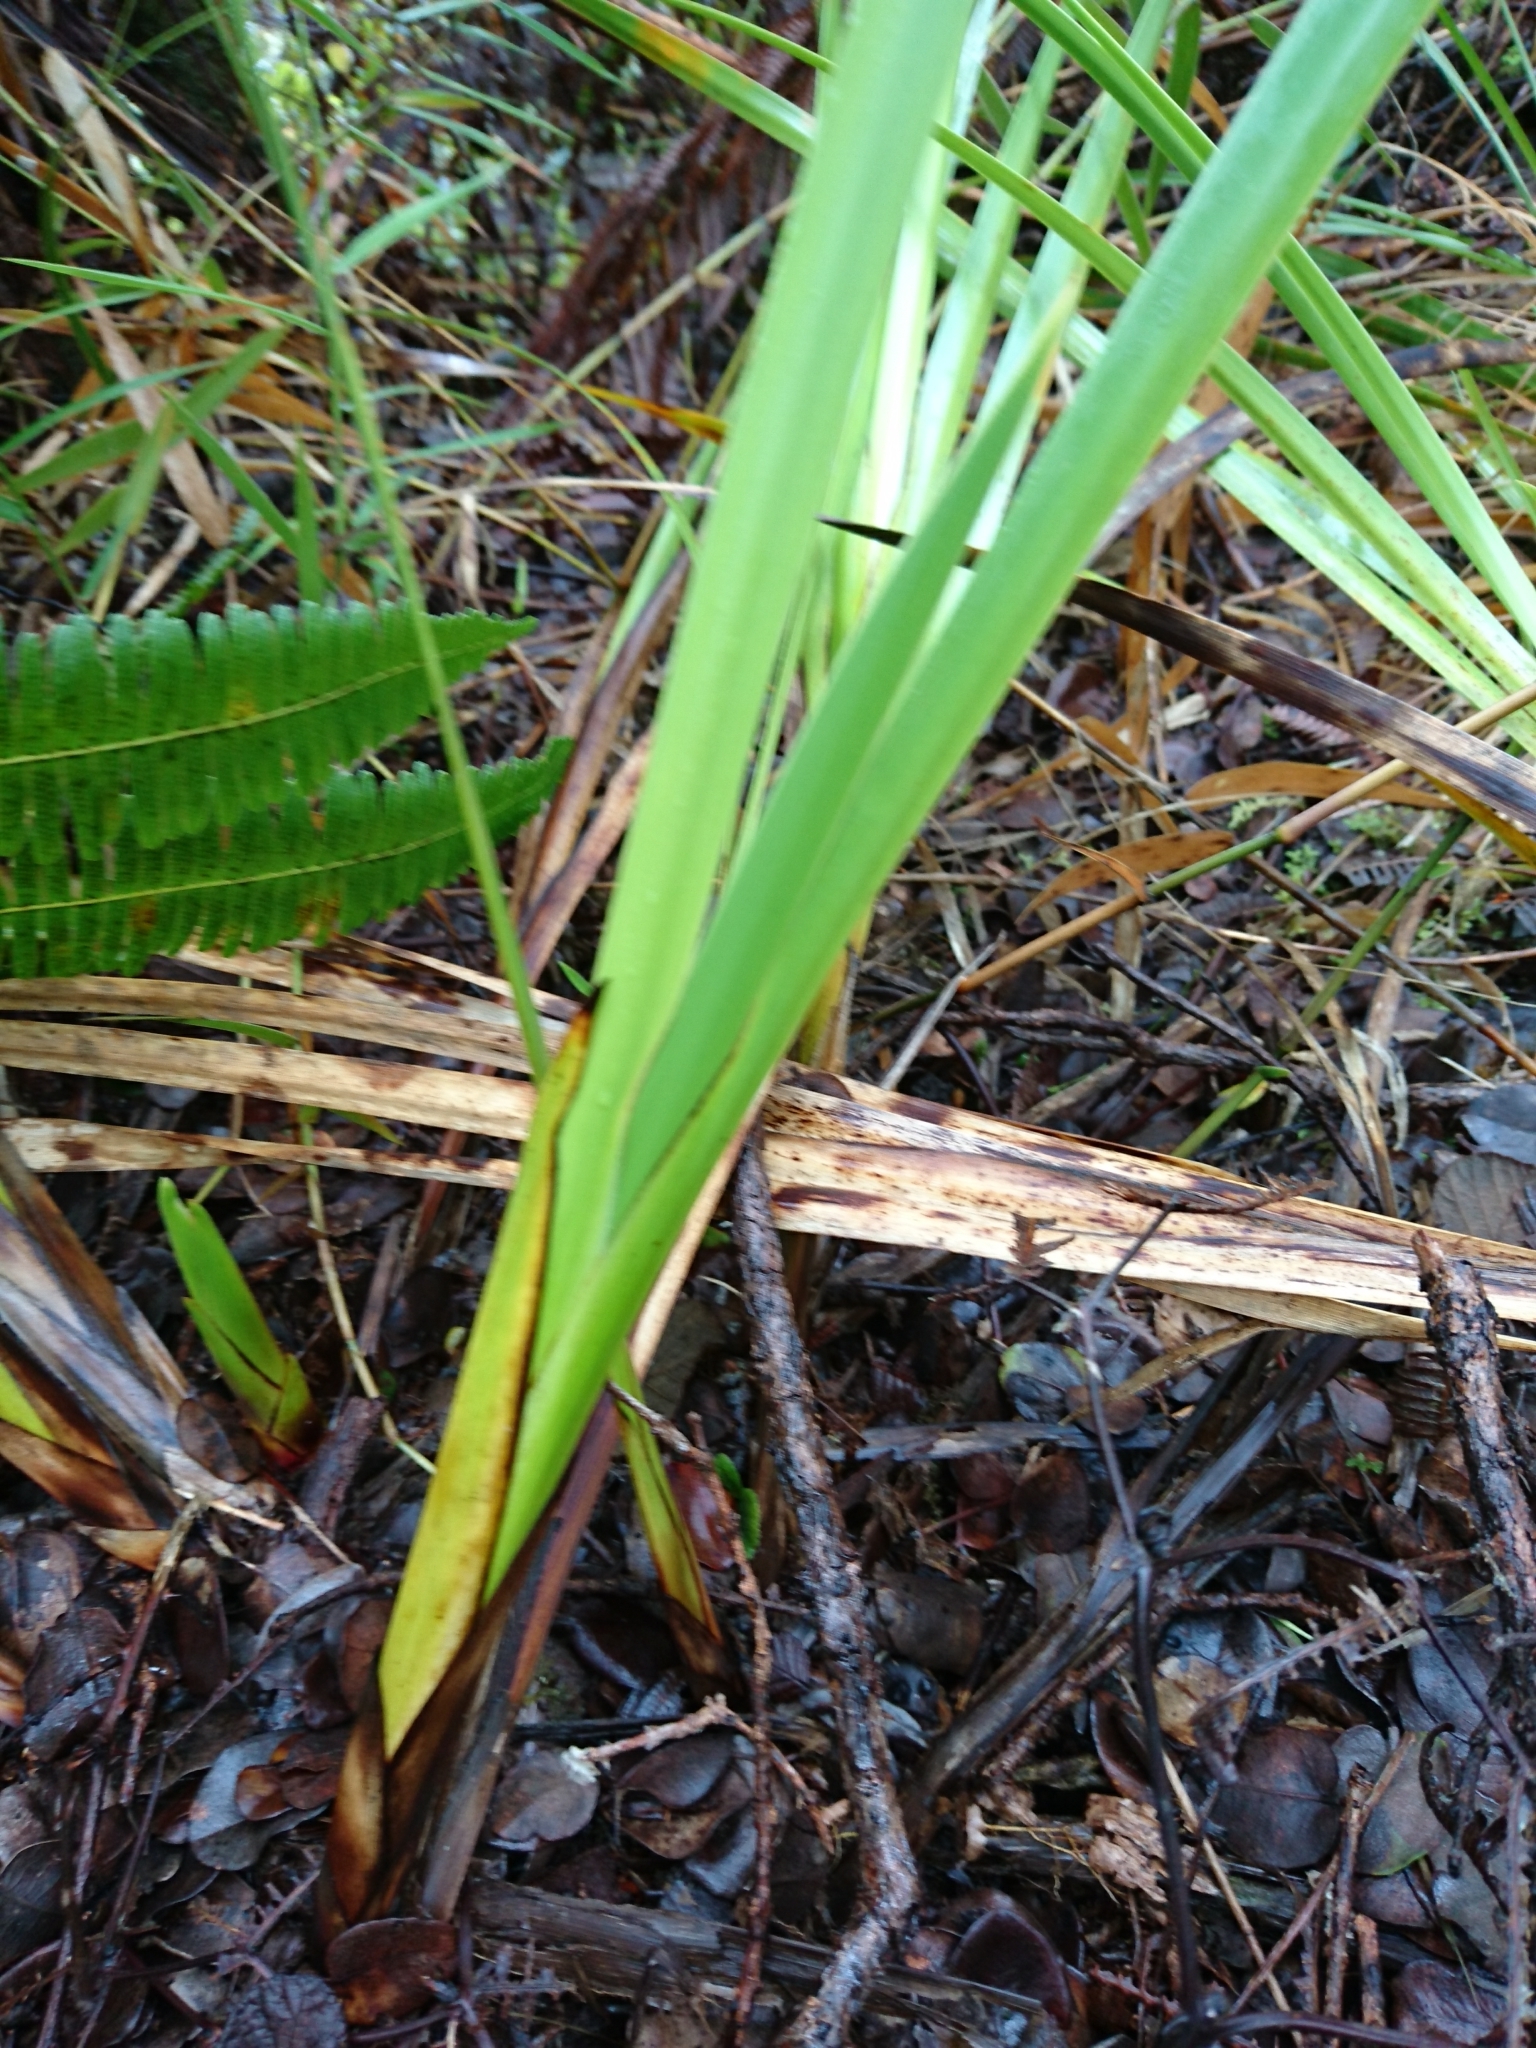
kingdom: Plantae
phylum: Tracheophyta
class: Liliopsida
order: Poales
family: Cyperaceae
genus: Machaerina
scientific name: Machaerina angustifolia
